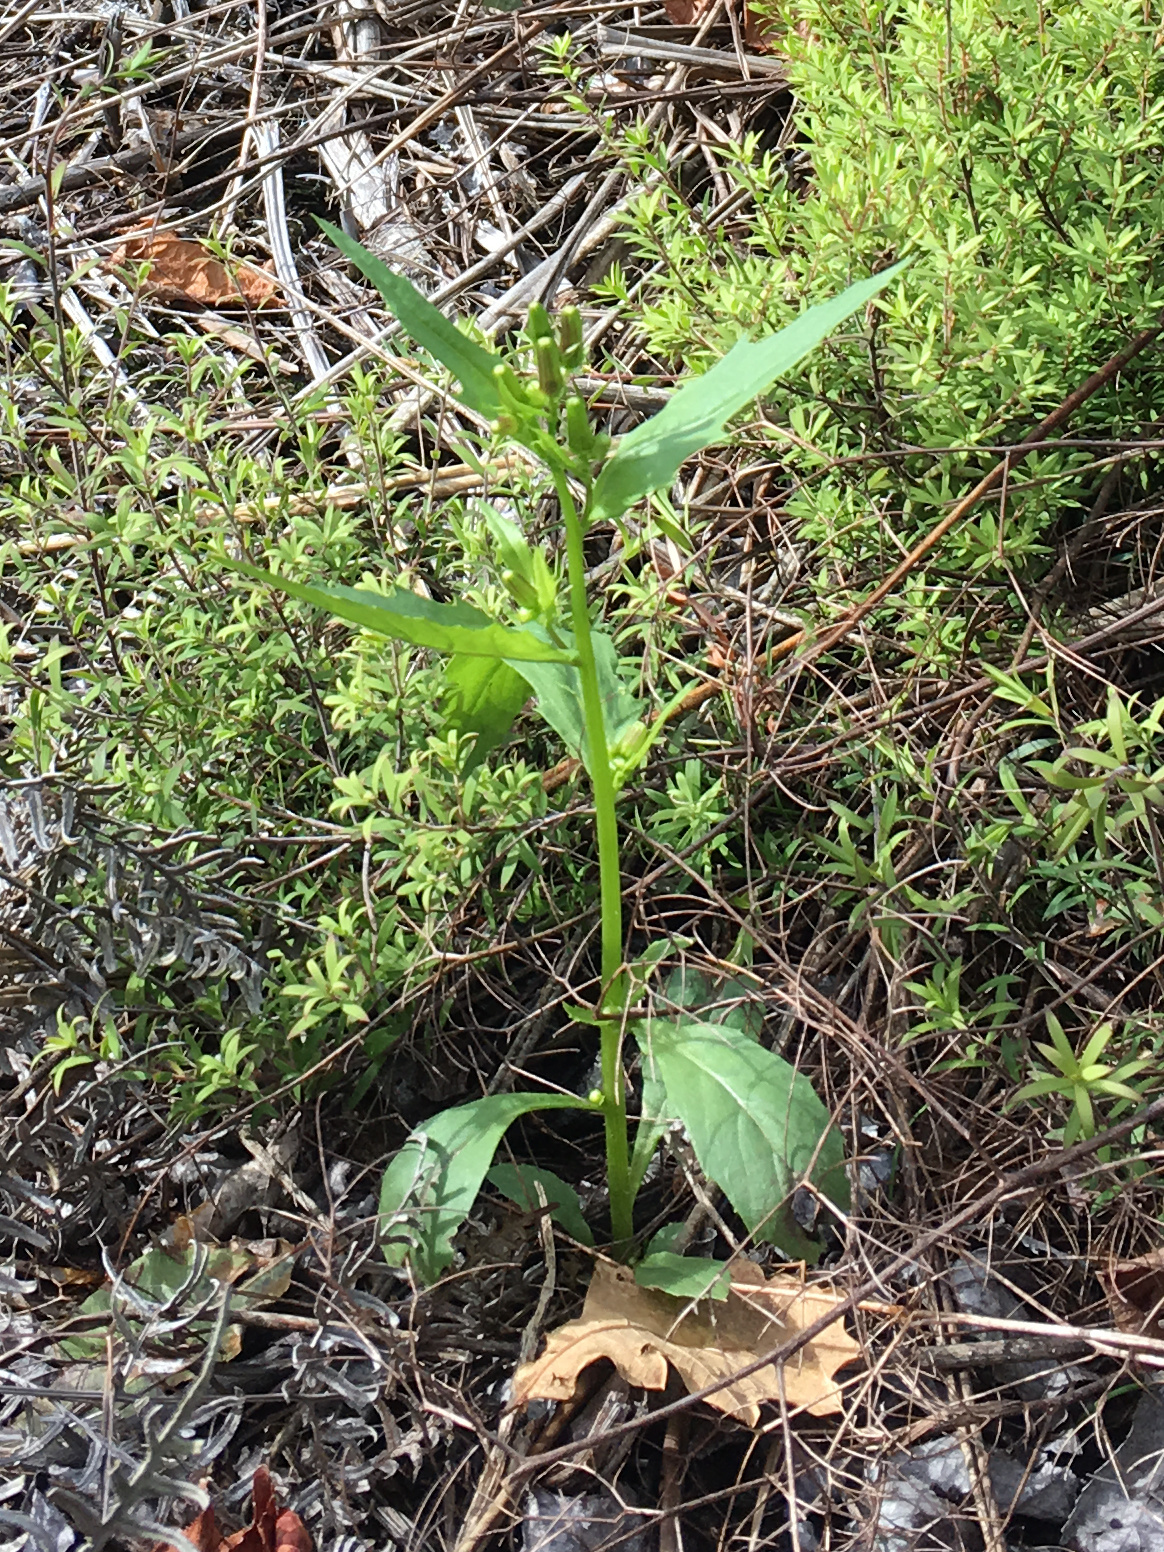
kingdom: Plantae
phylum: Tracheophyta
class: Magnoliopsida
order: Asterales
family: Asteraceae
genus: Erechtites
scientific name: Erechtites hieraciifolius
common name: American burnweed
